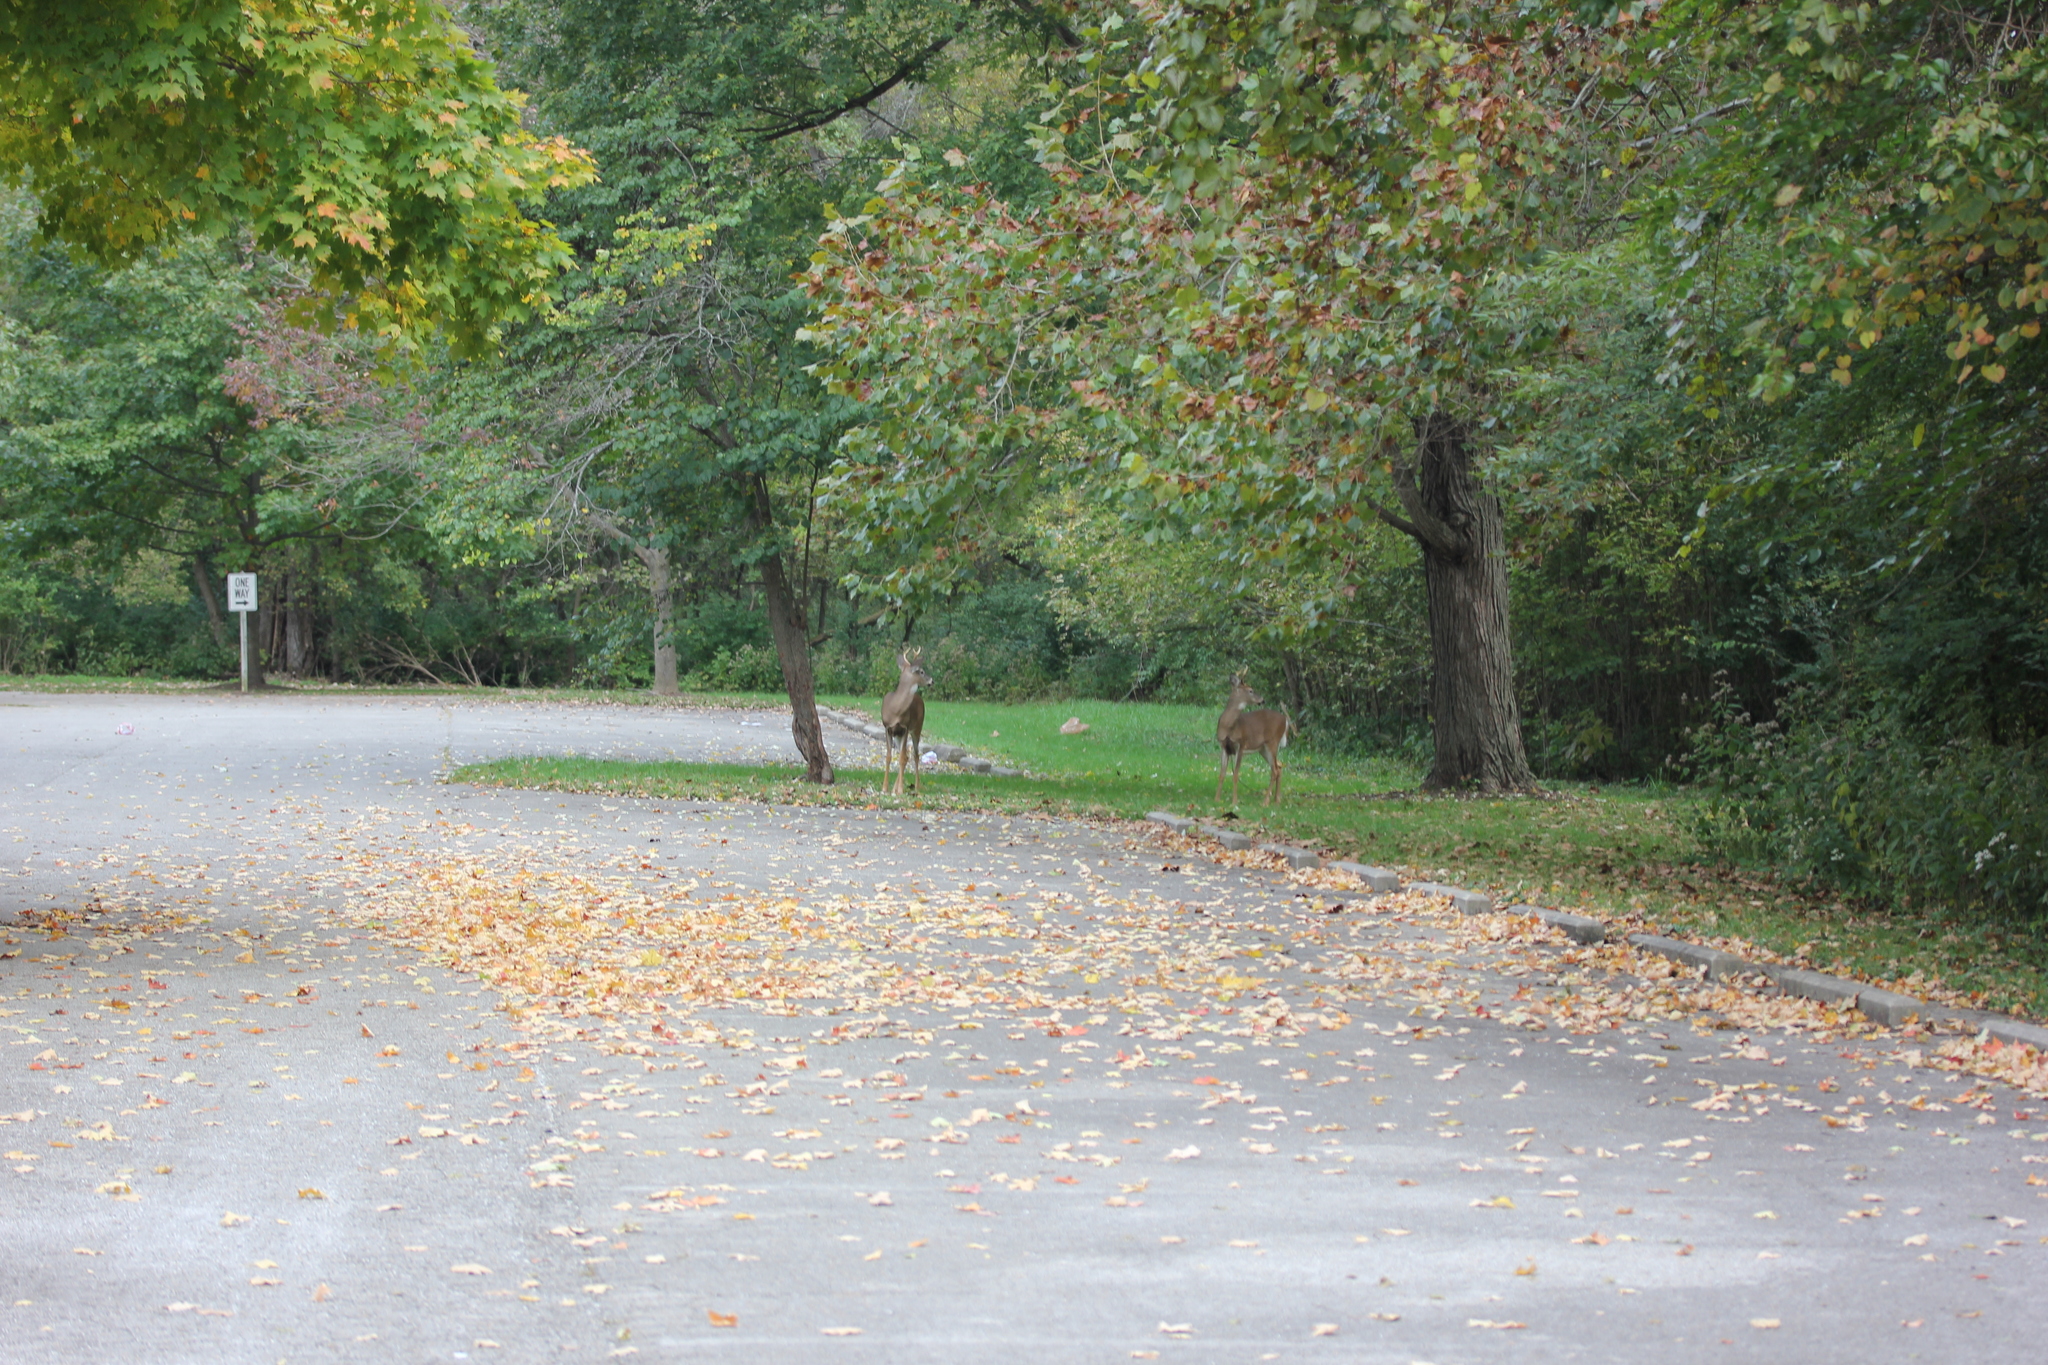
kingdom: Plantae
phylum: Tracheophyta
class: Magnoliopsida
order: Proteales
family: Platanaceae
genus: Platanus
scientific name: Platanus occidentalis
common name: American sycamore
